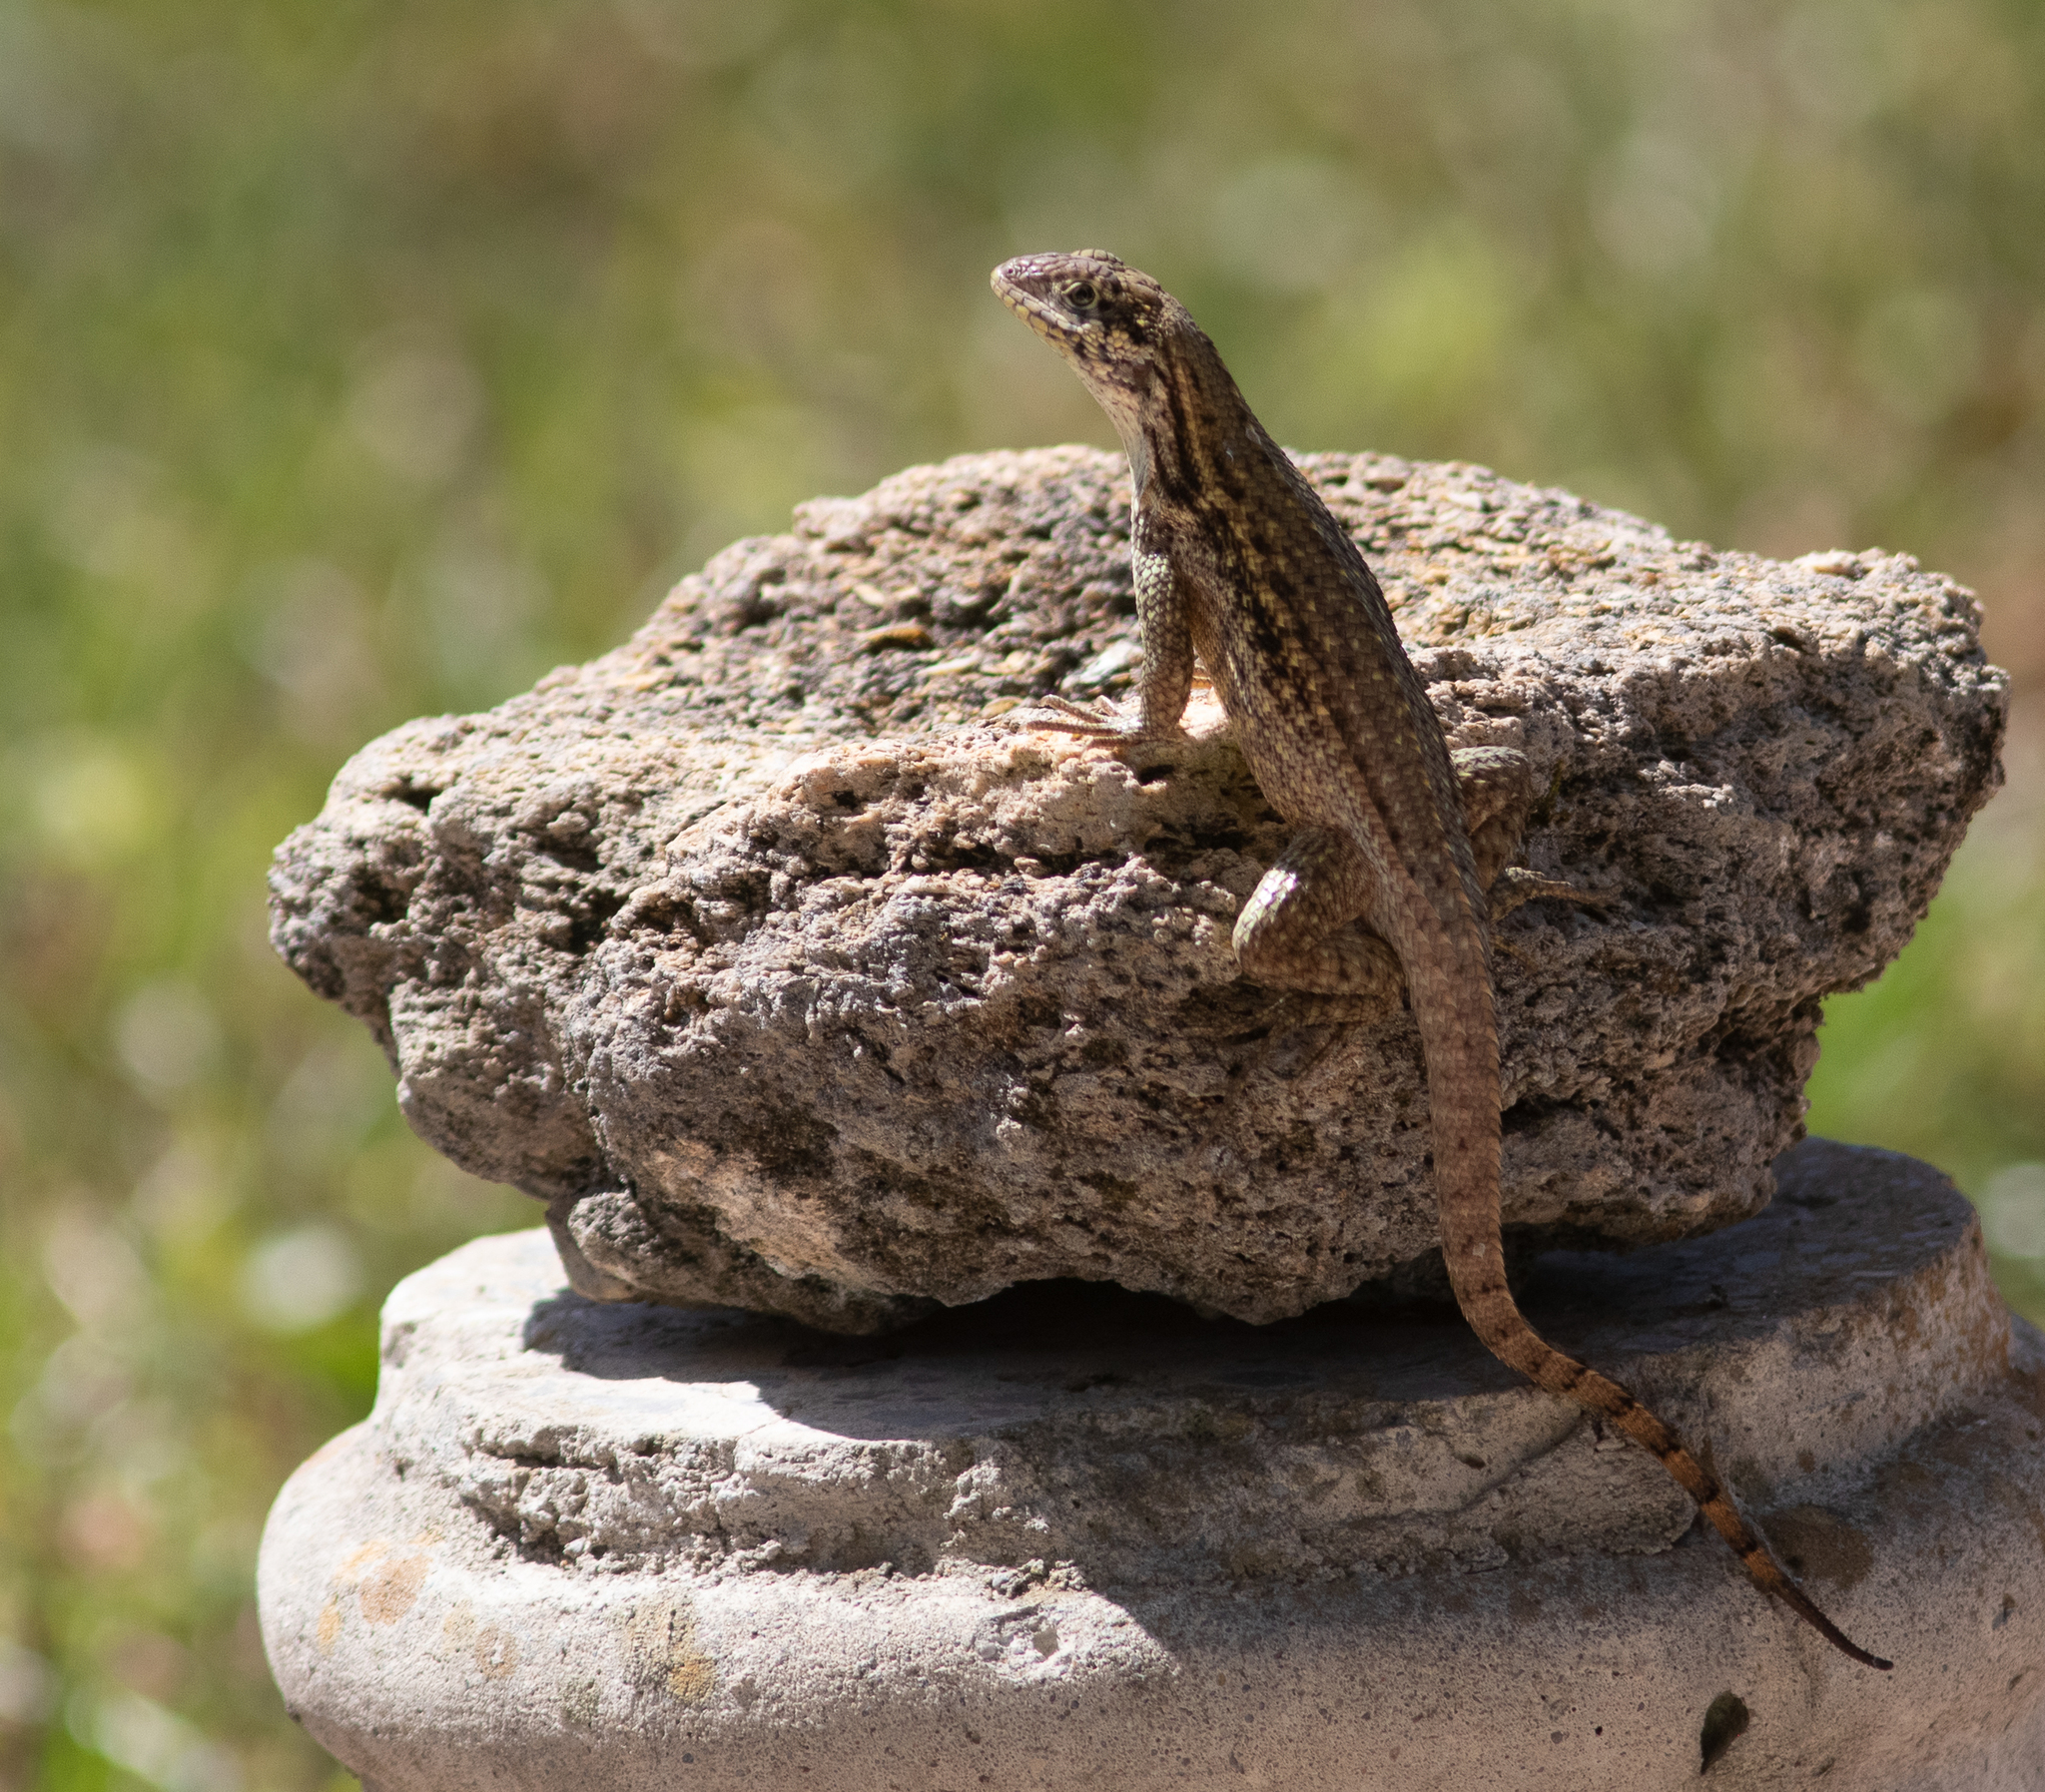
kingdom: Animalia
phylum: Chordata
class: Squamata
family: Leiocephalidae
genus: Leiocephalus
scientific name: Leiocephalus carinatus
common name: Northern curly-tailed lizard
